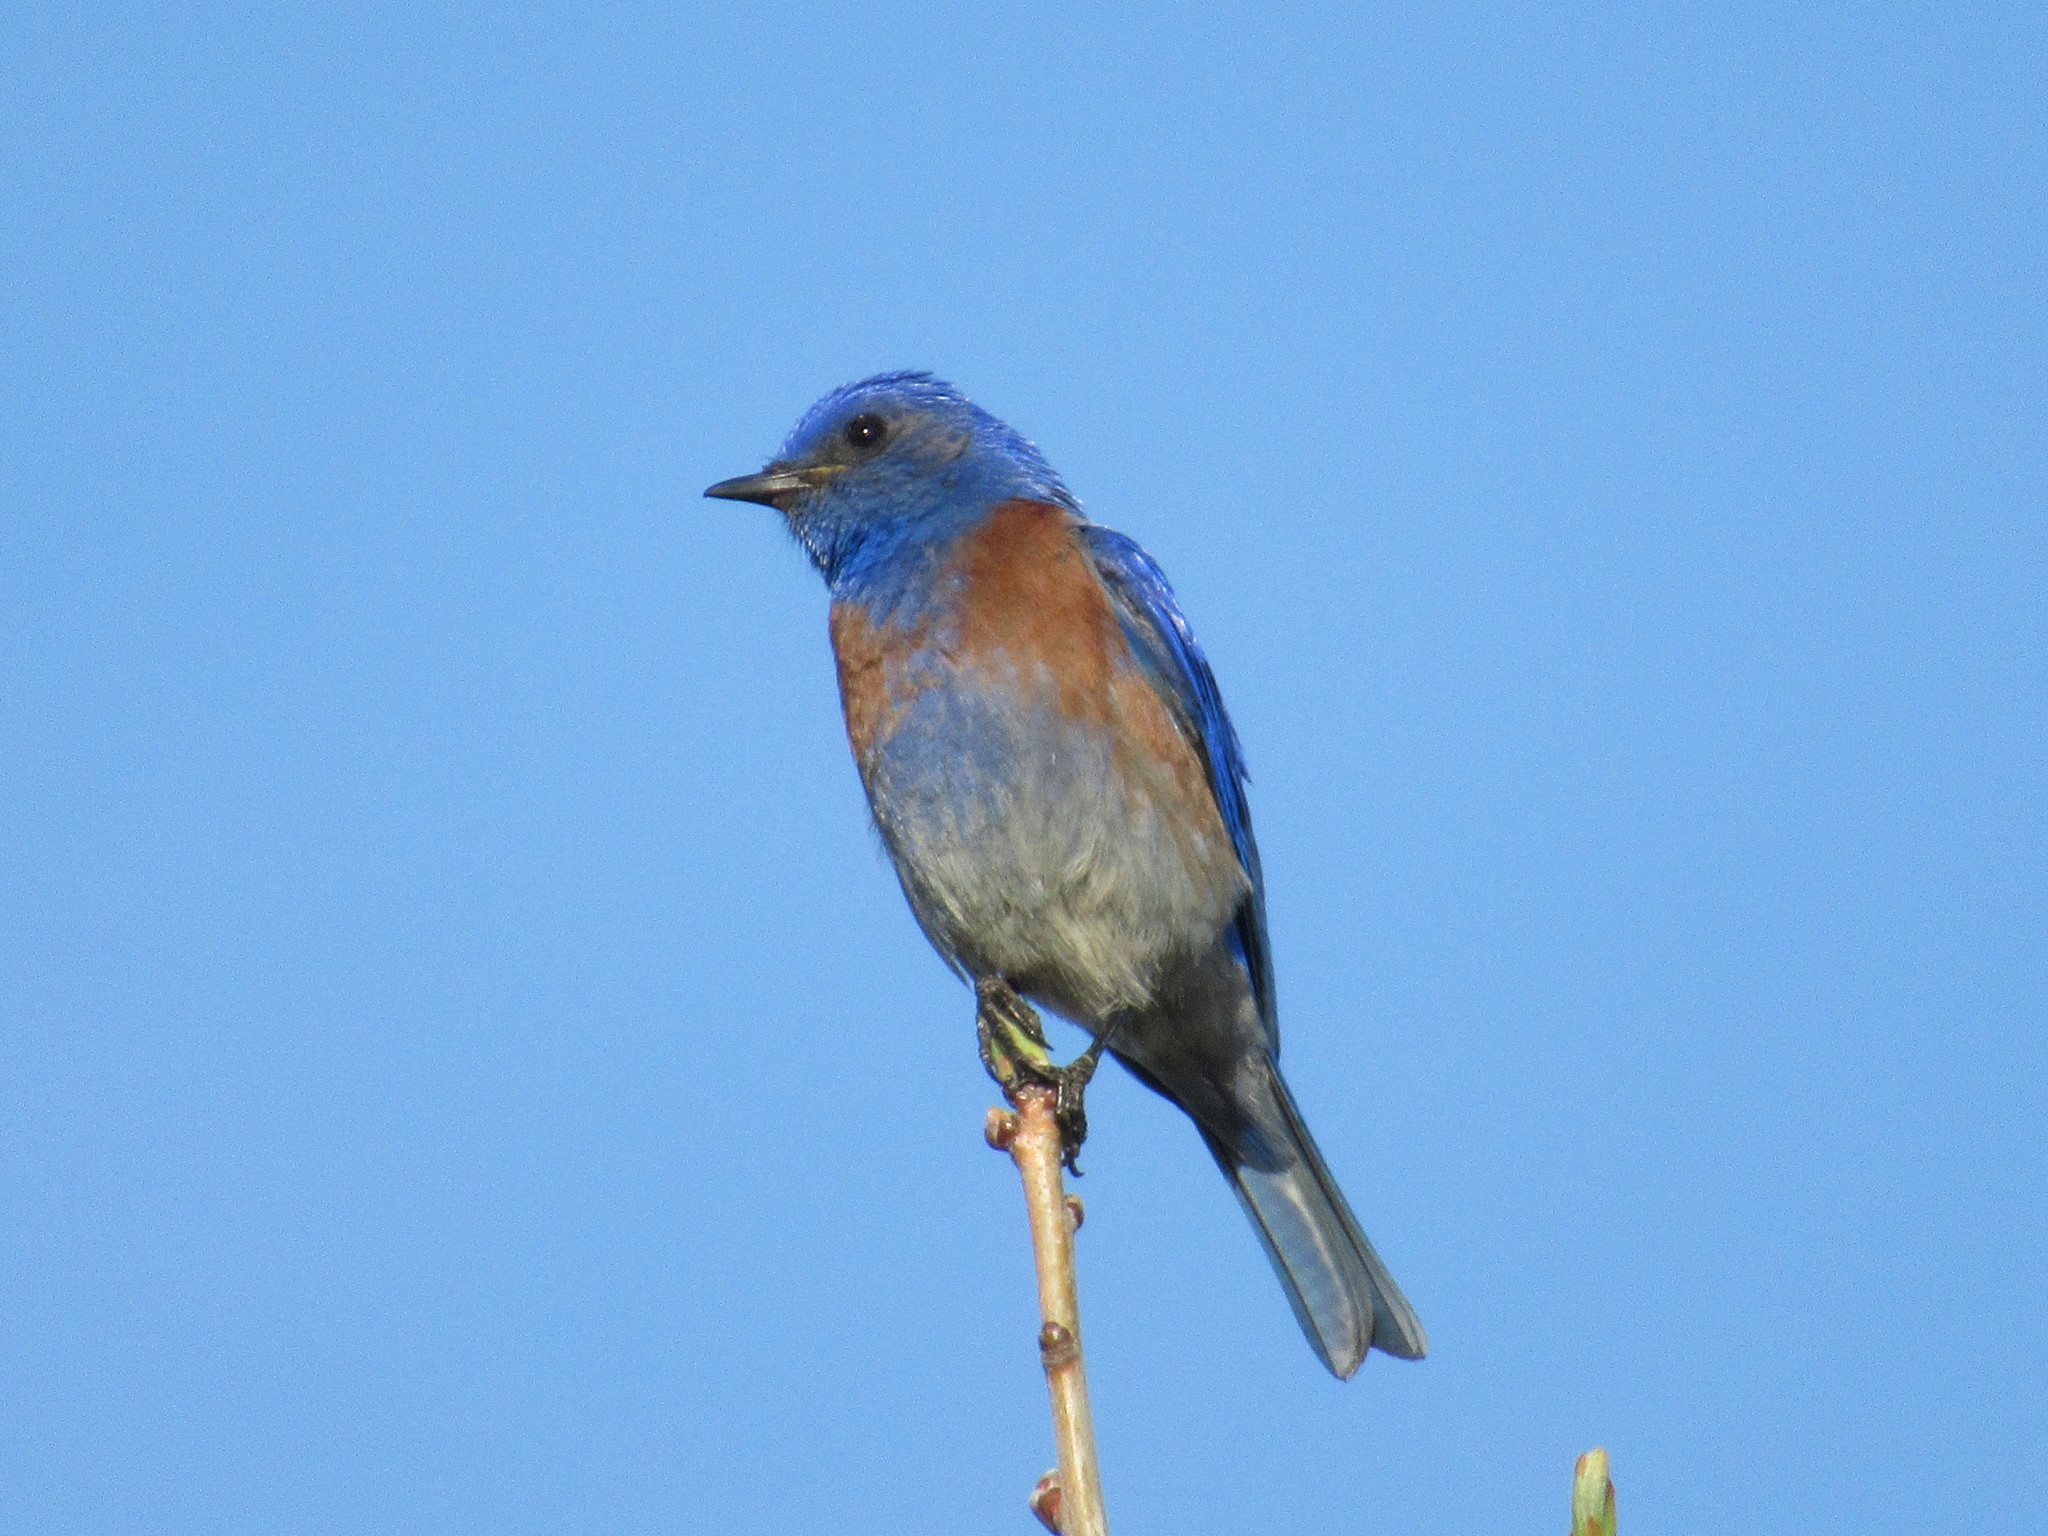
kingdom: Animalia
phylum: Chordata
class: Aves
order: Passeriformes
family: Turdidae
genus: Sialia
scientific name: Sialia mexicana
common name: Western bluebird
